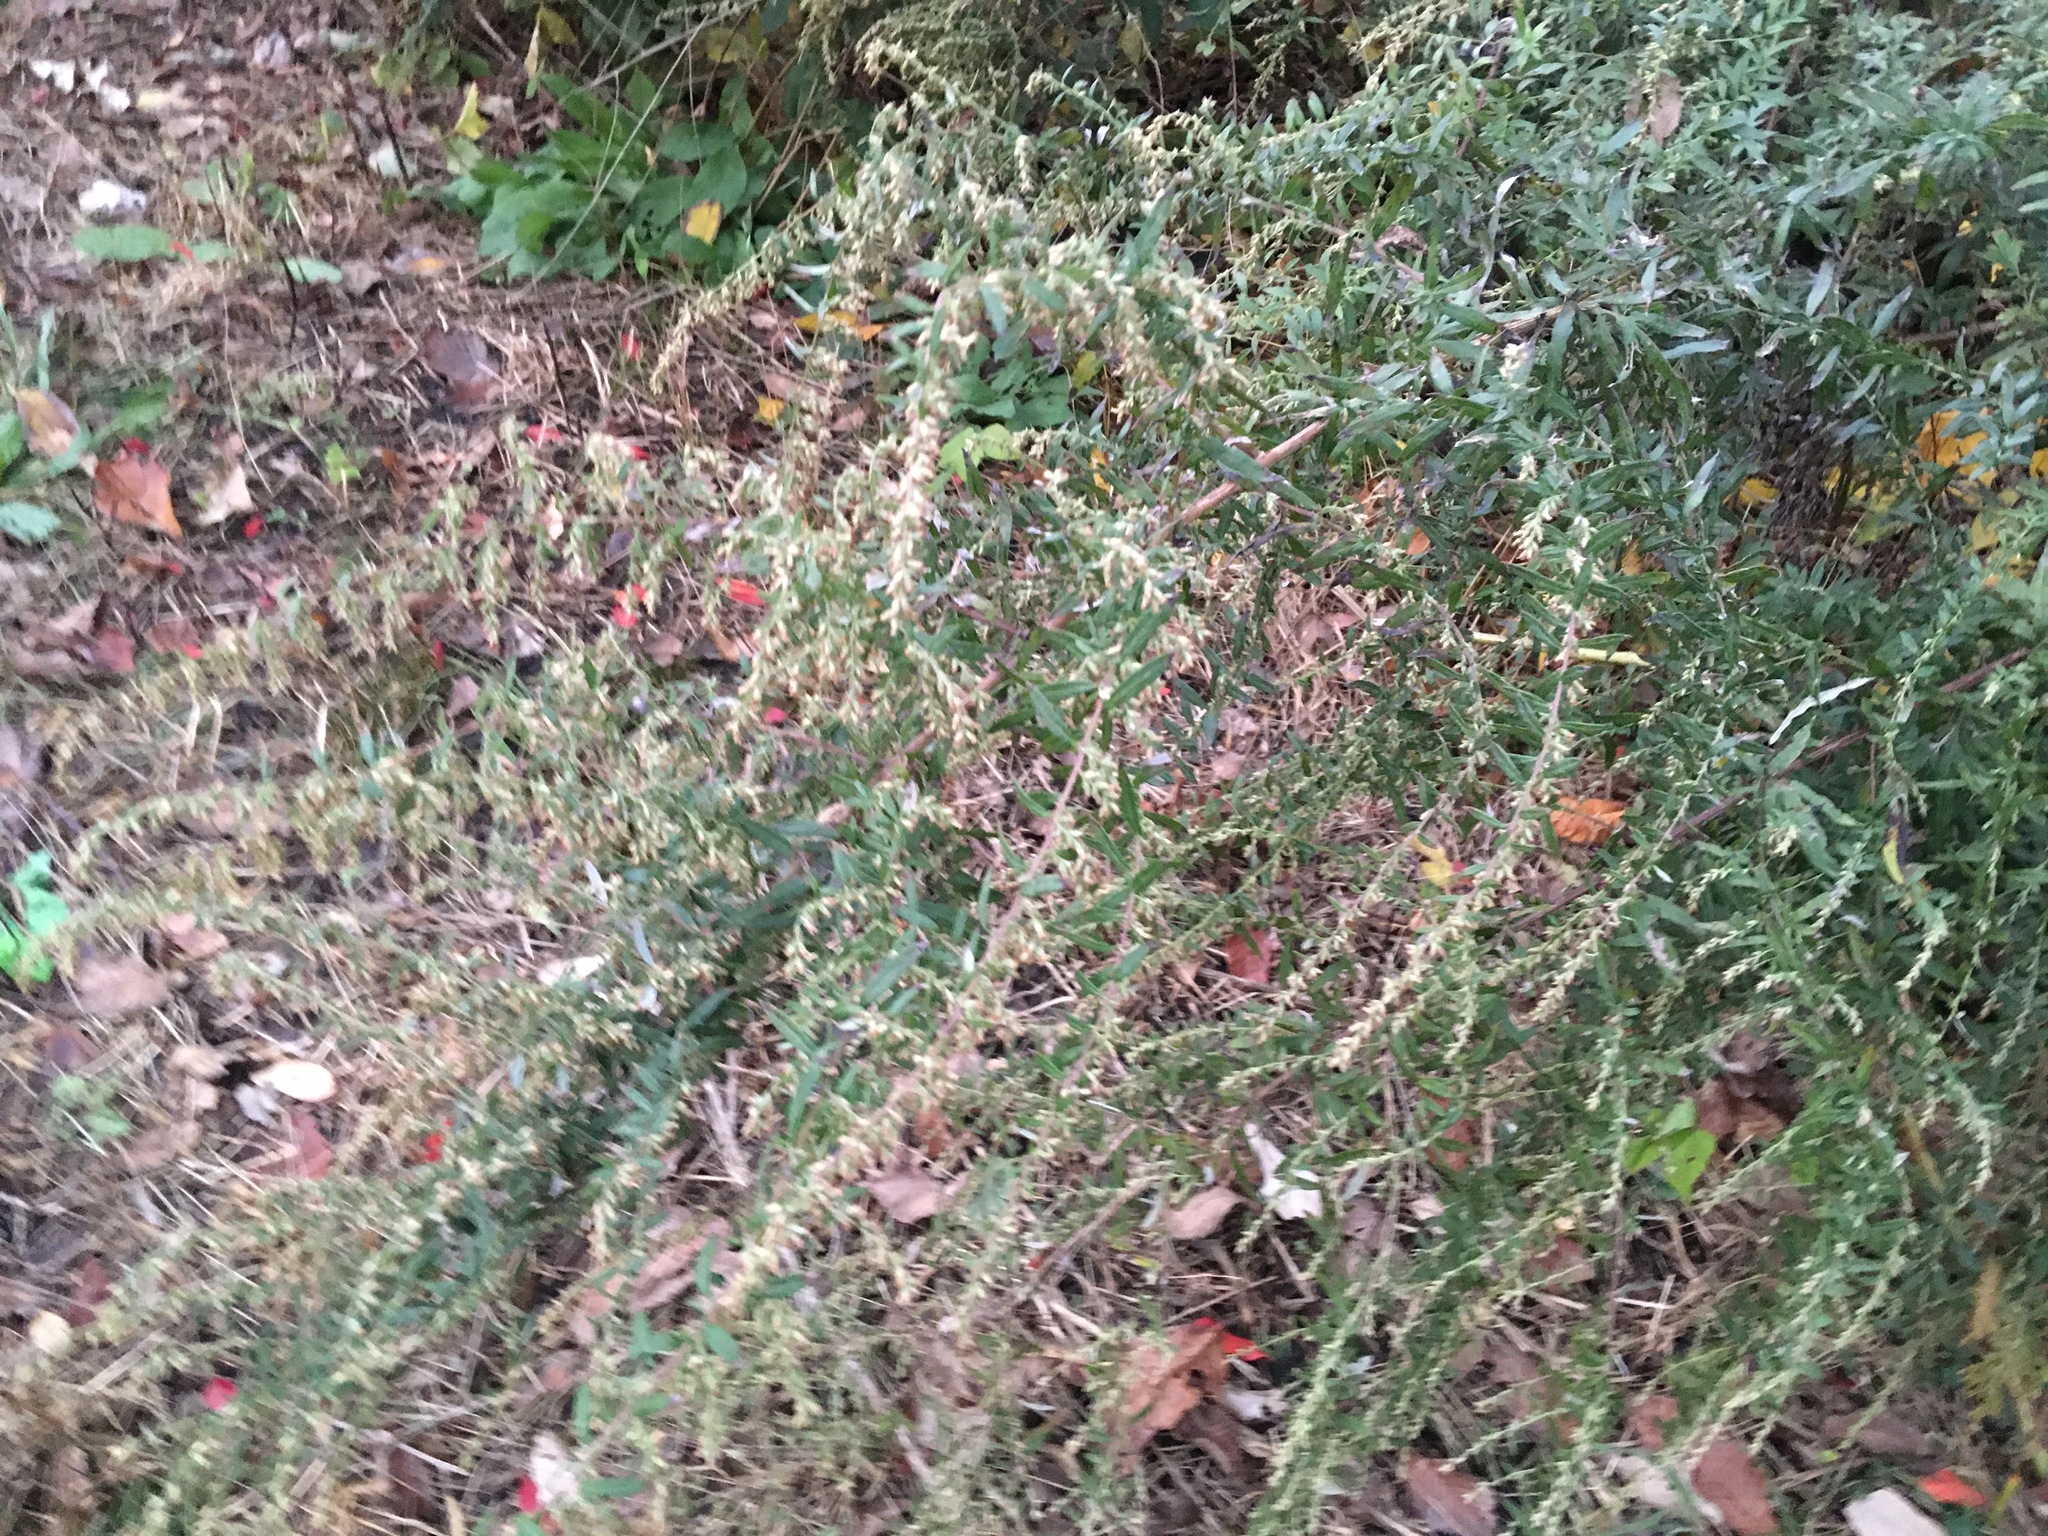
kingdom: Plantae
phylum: Tracheophyta
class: Magnoliopsida
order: Asterales
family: Asteraceae
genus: Artemisia
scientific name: Artemisia vulgaris
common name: Mugwort
